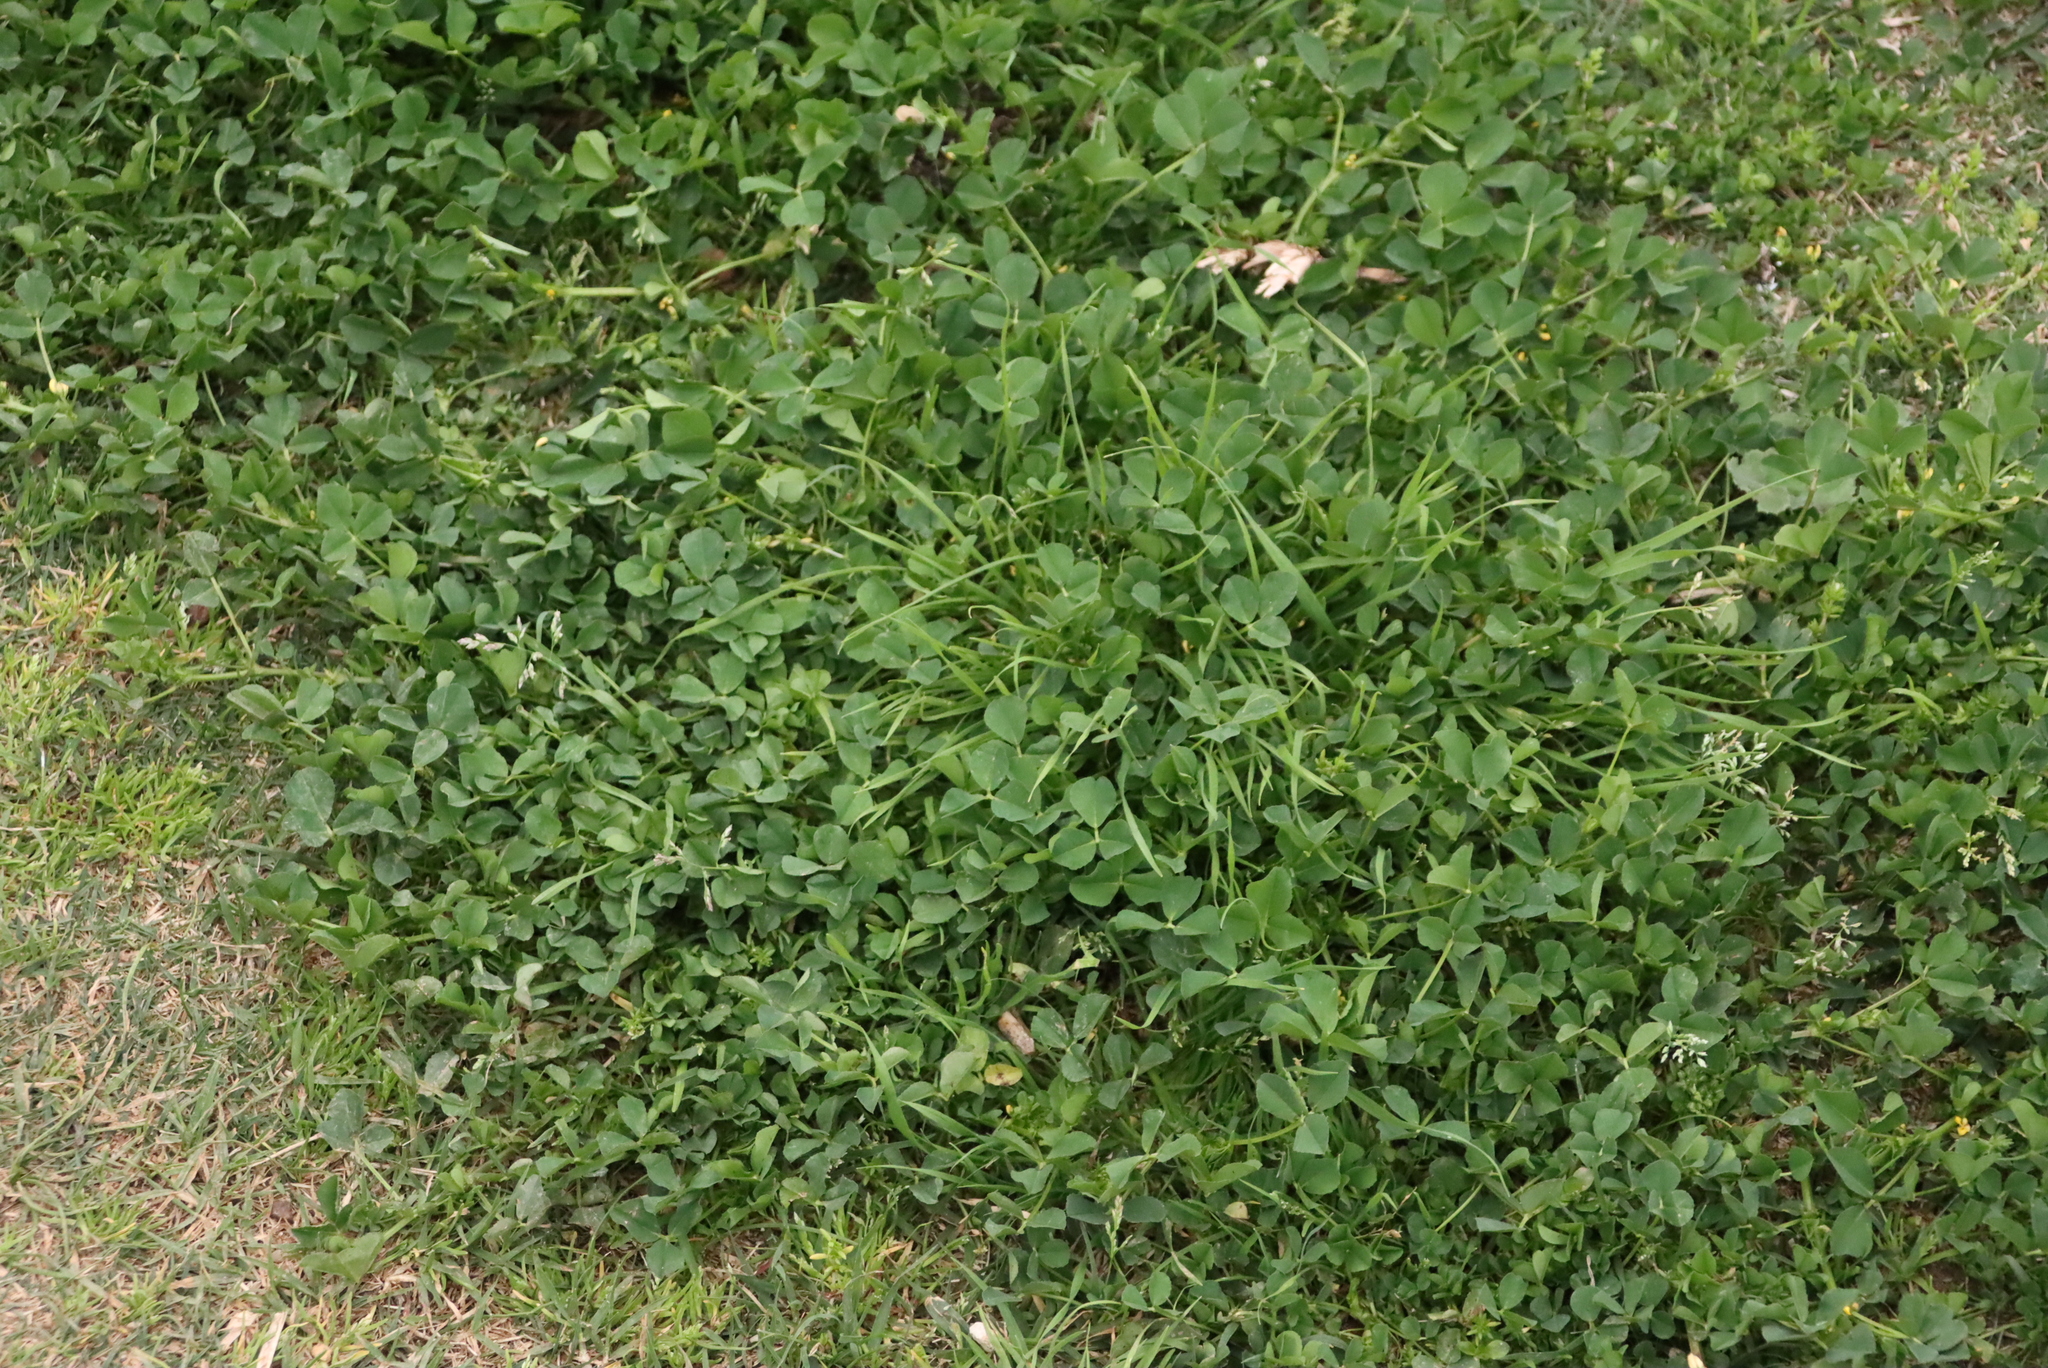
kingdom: Plantae
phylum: Tracheophyta
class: Magnoliopsida
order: Fabales
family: Fabaceae
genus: Medicago
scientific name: Medicago polymorpha
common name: Burclover
